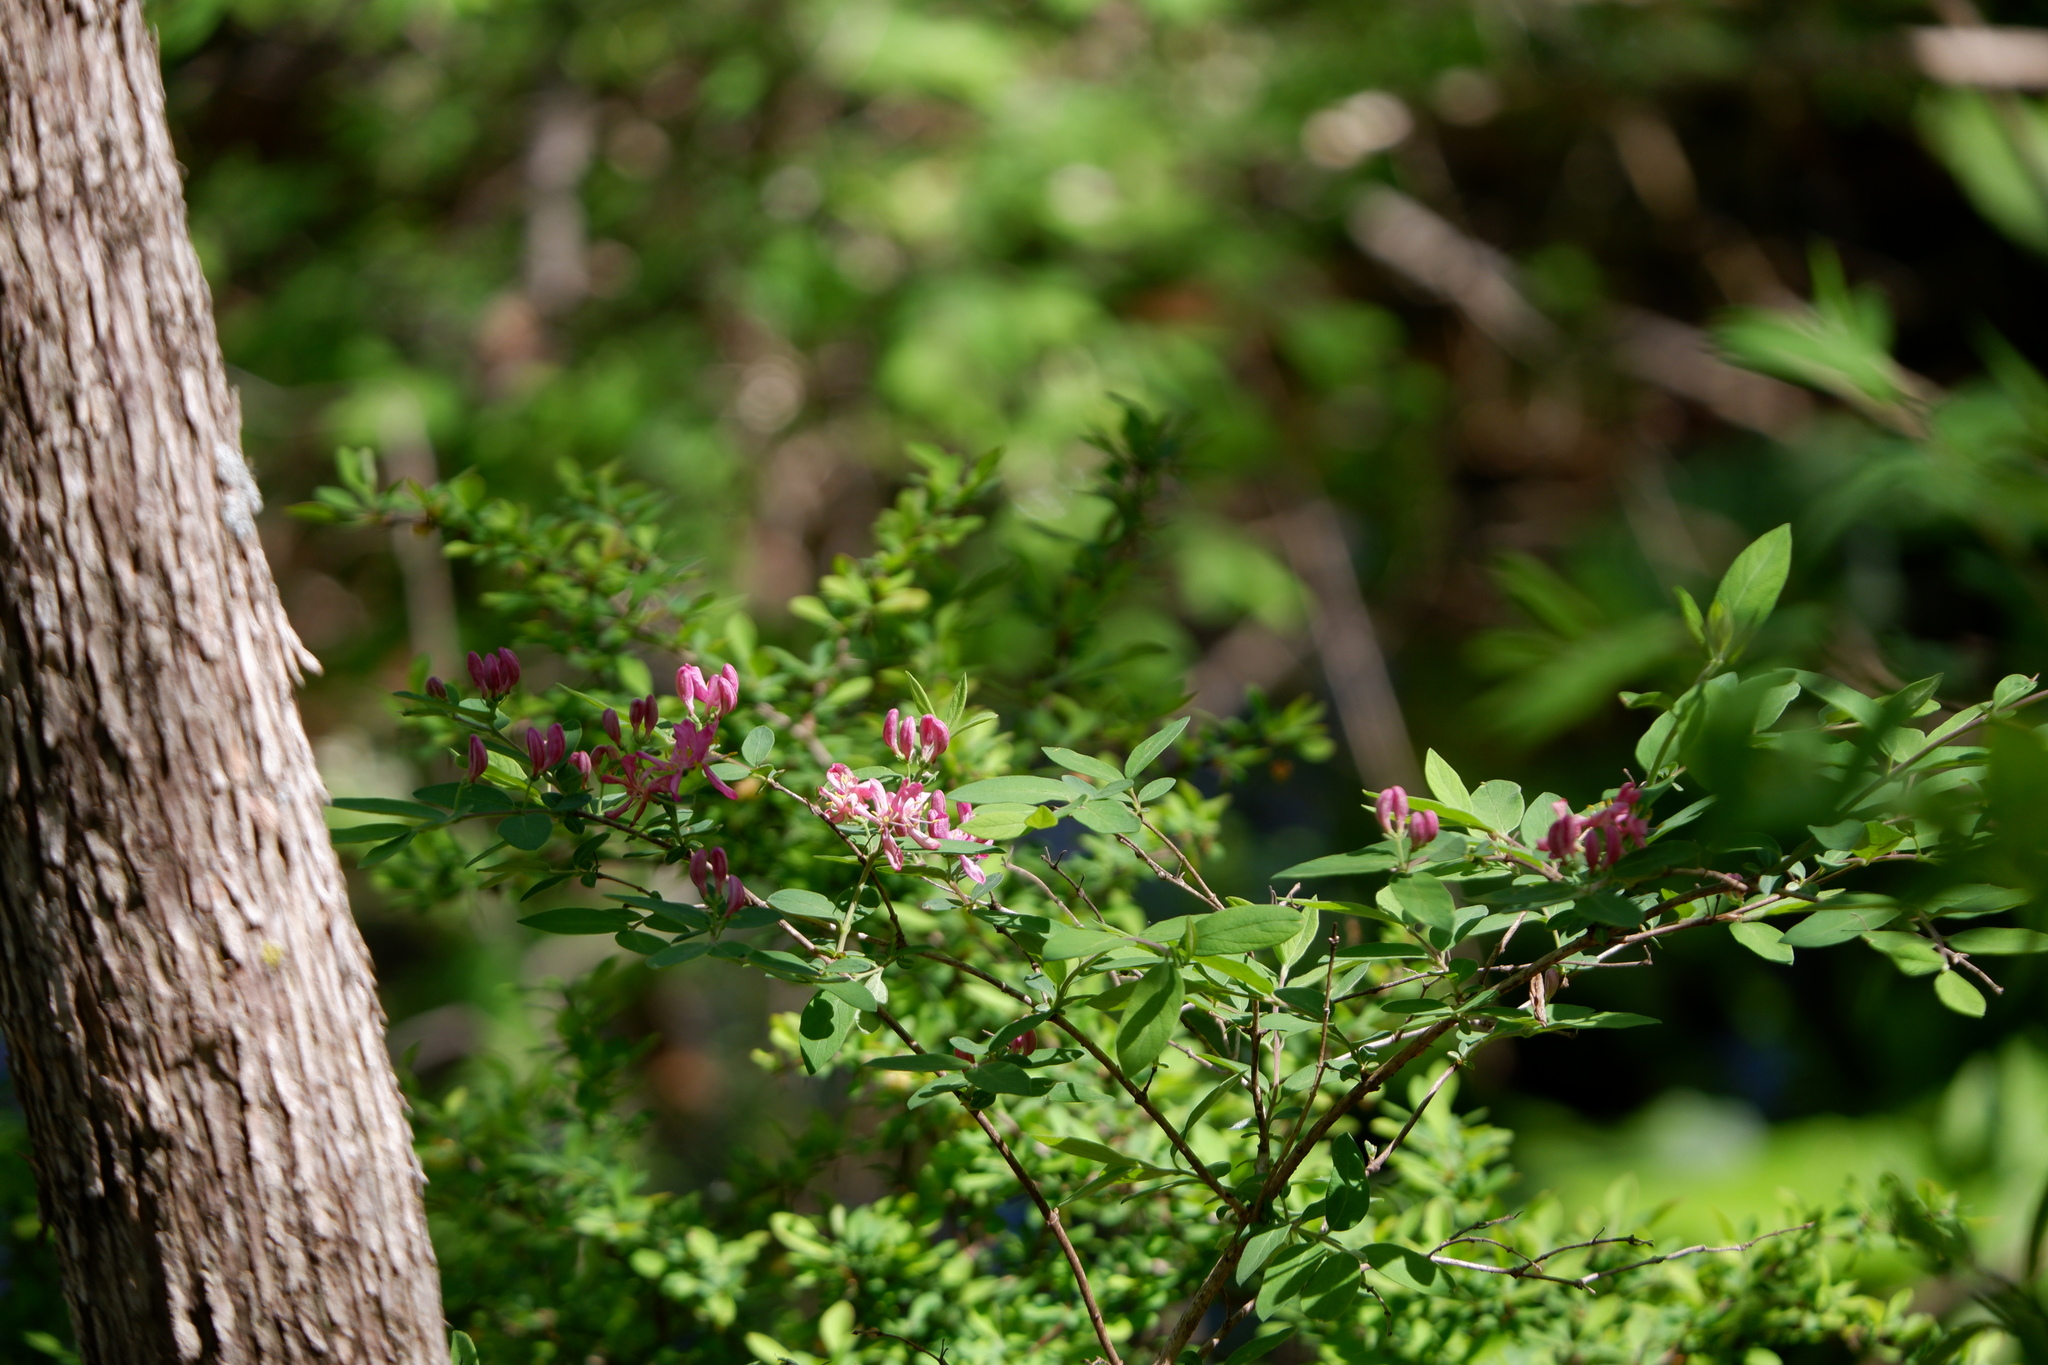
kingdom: Plantae
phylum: Tracheophyta
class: Magnoliopsida
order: Dipsacales
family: Caprifoliaceae
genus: Lonicera
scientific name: Lonicera tatarica
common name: Tatarian honeysuckle
